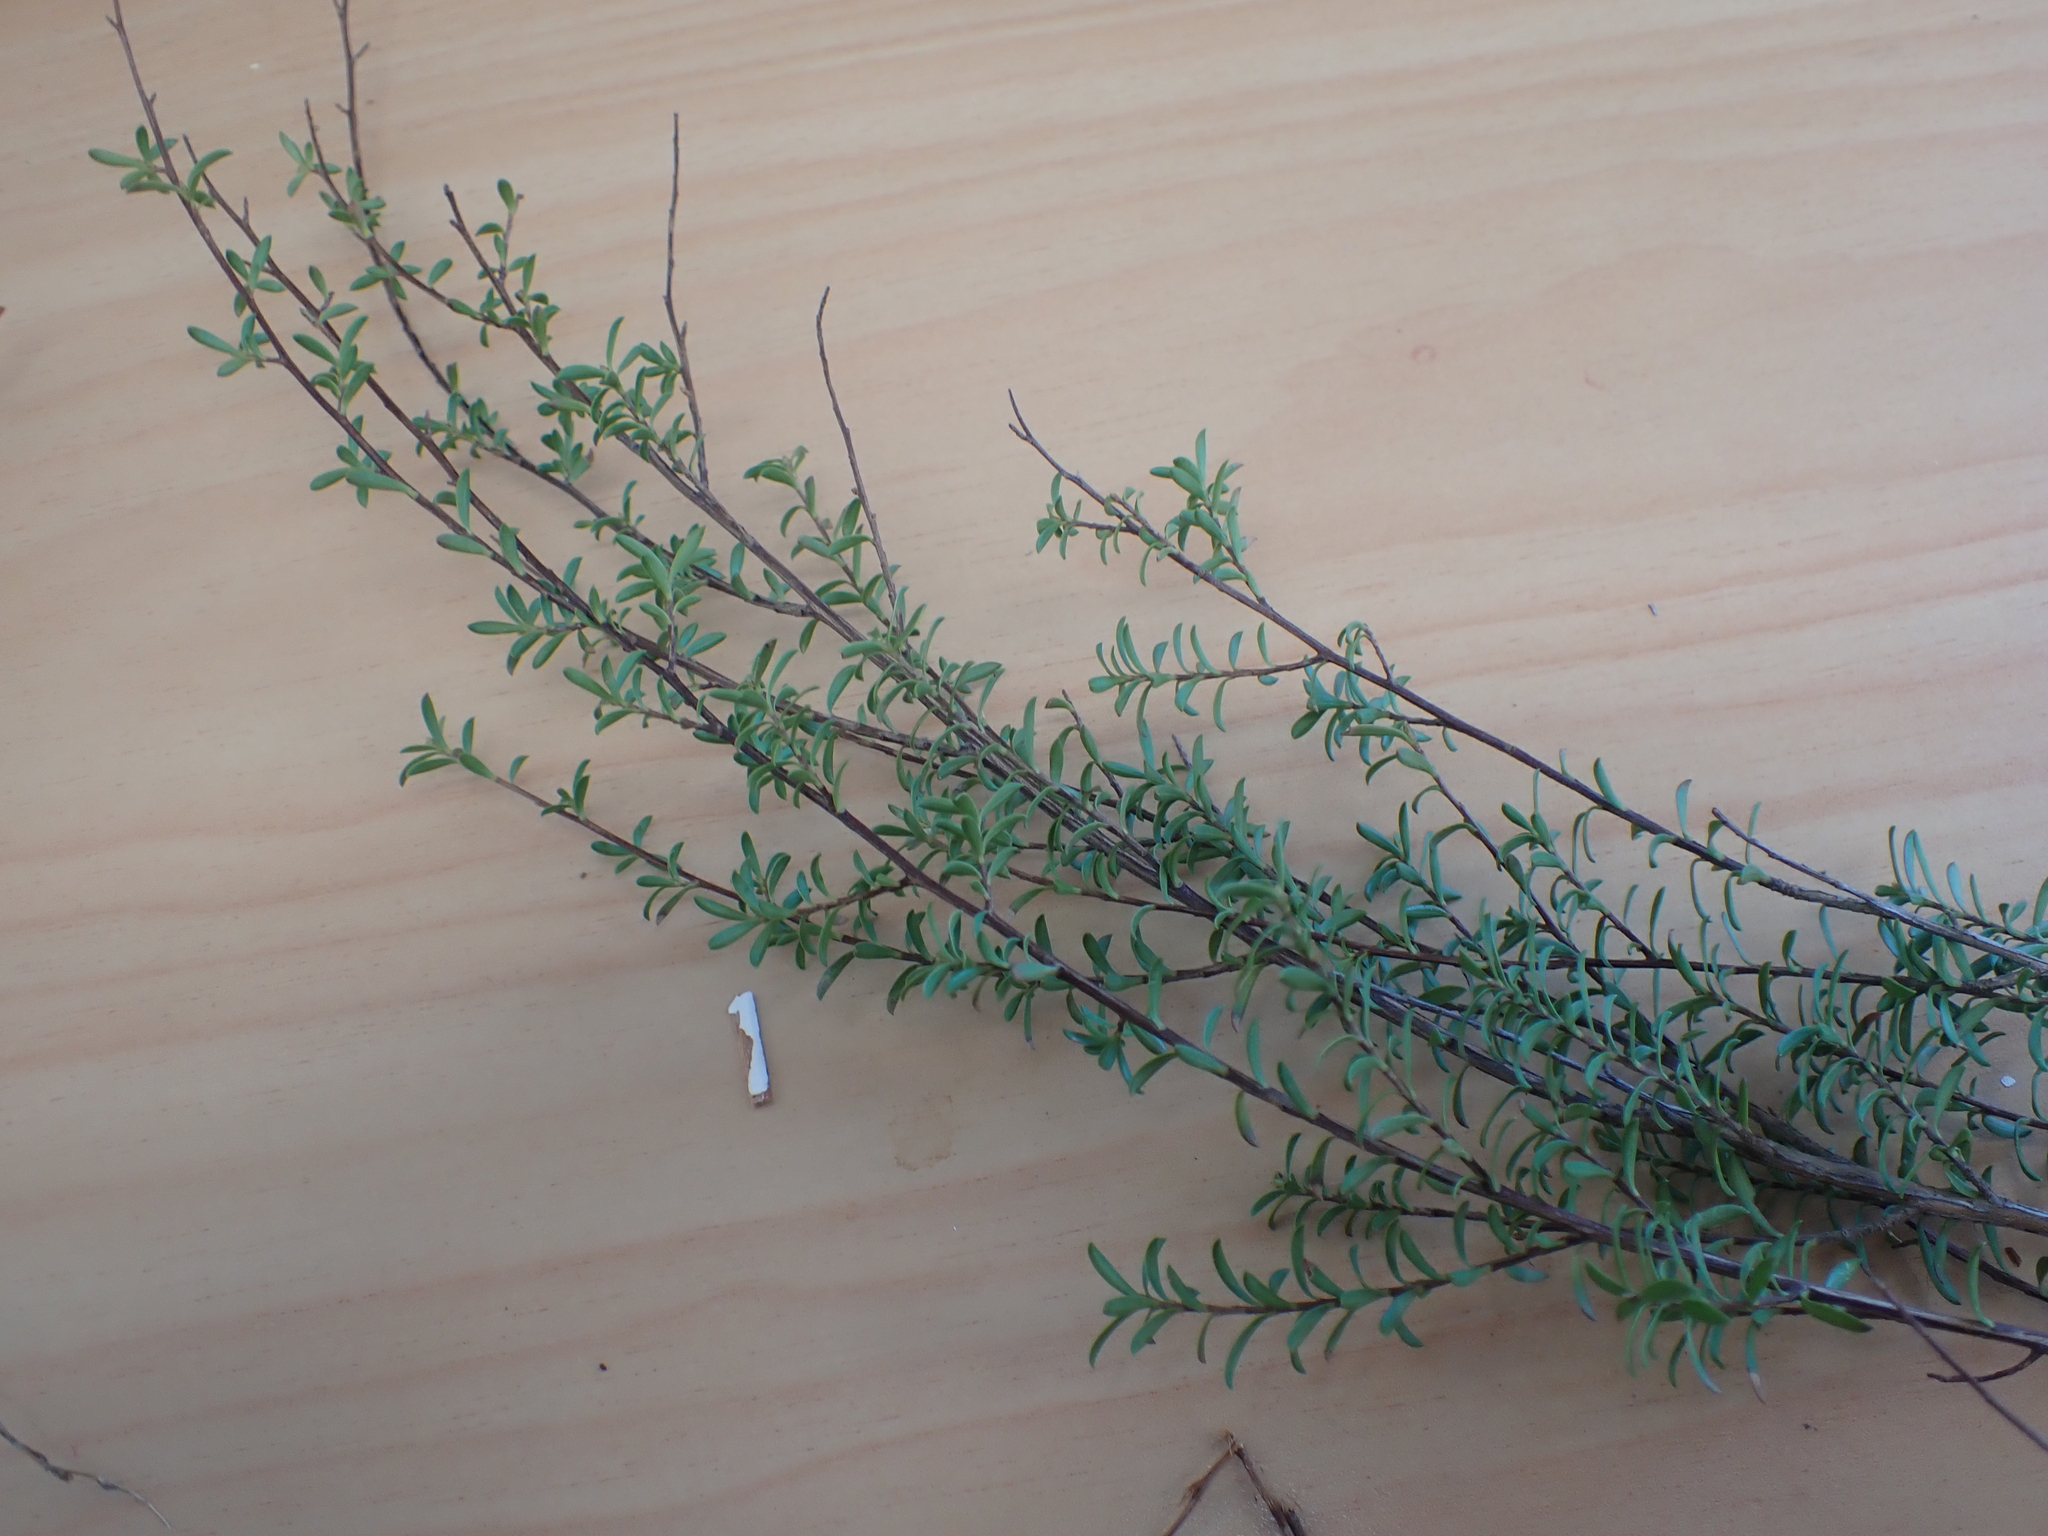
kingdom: Plantae
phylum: Tracheophyta
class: Magnoliopsida
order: Myrtales
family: Myrtaceae
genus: Kunzea
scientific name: Kunzea robusta
